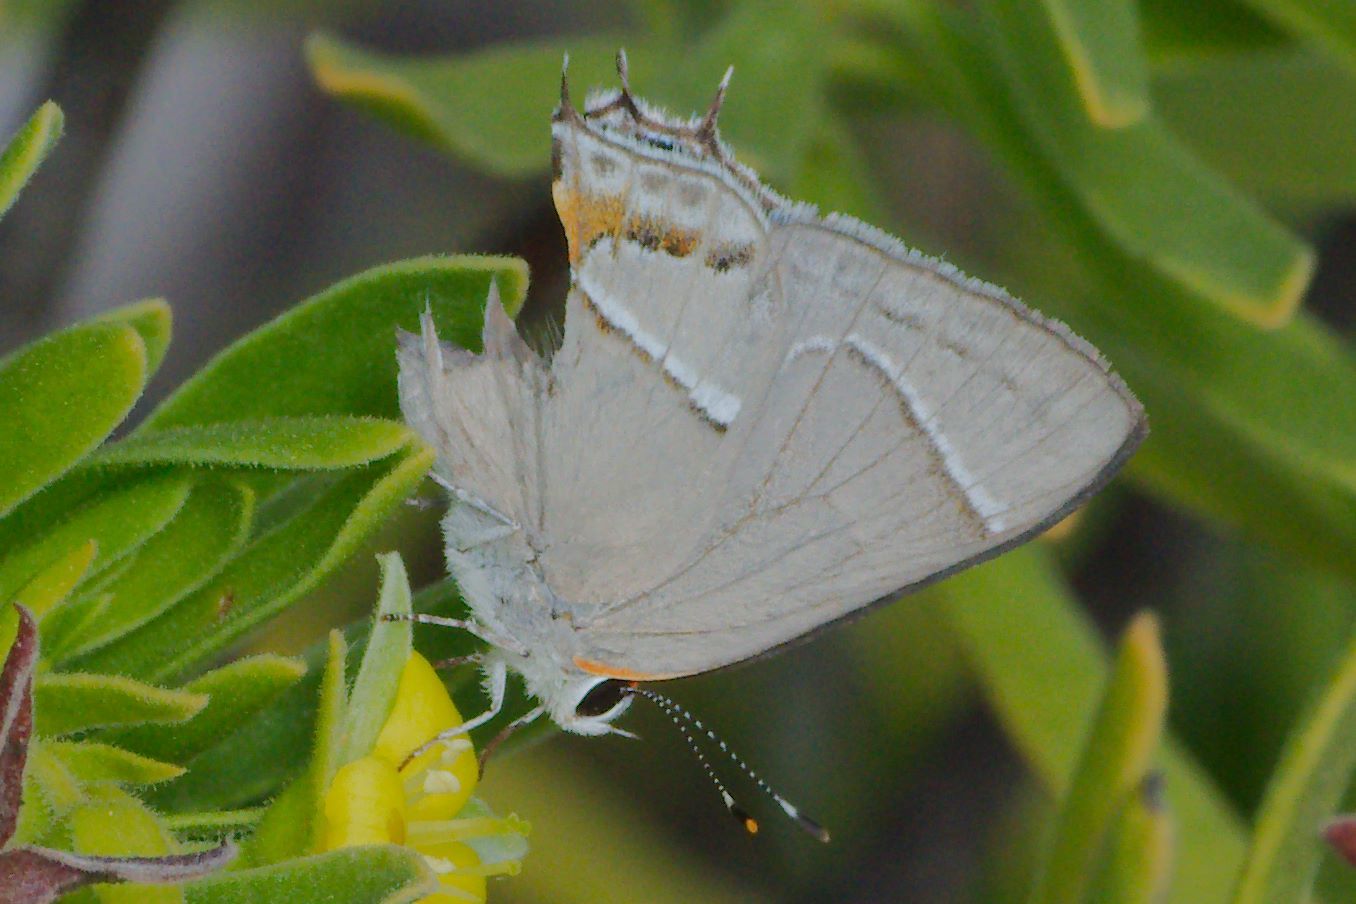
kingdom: Animalia
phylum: Arthropoda
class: Insecta
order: Lepidoptera
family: Lycaenidae
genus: Thecla
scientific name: Thecla martialis
